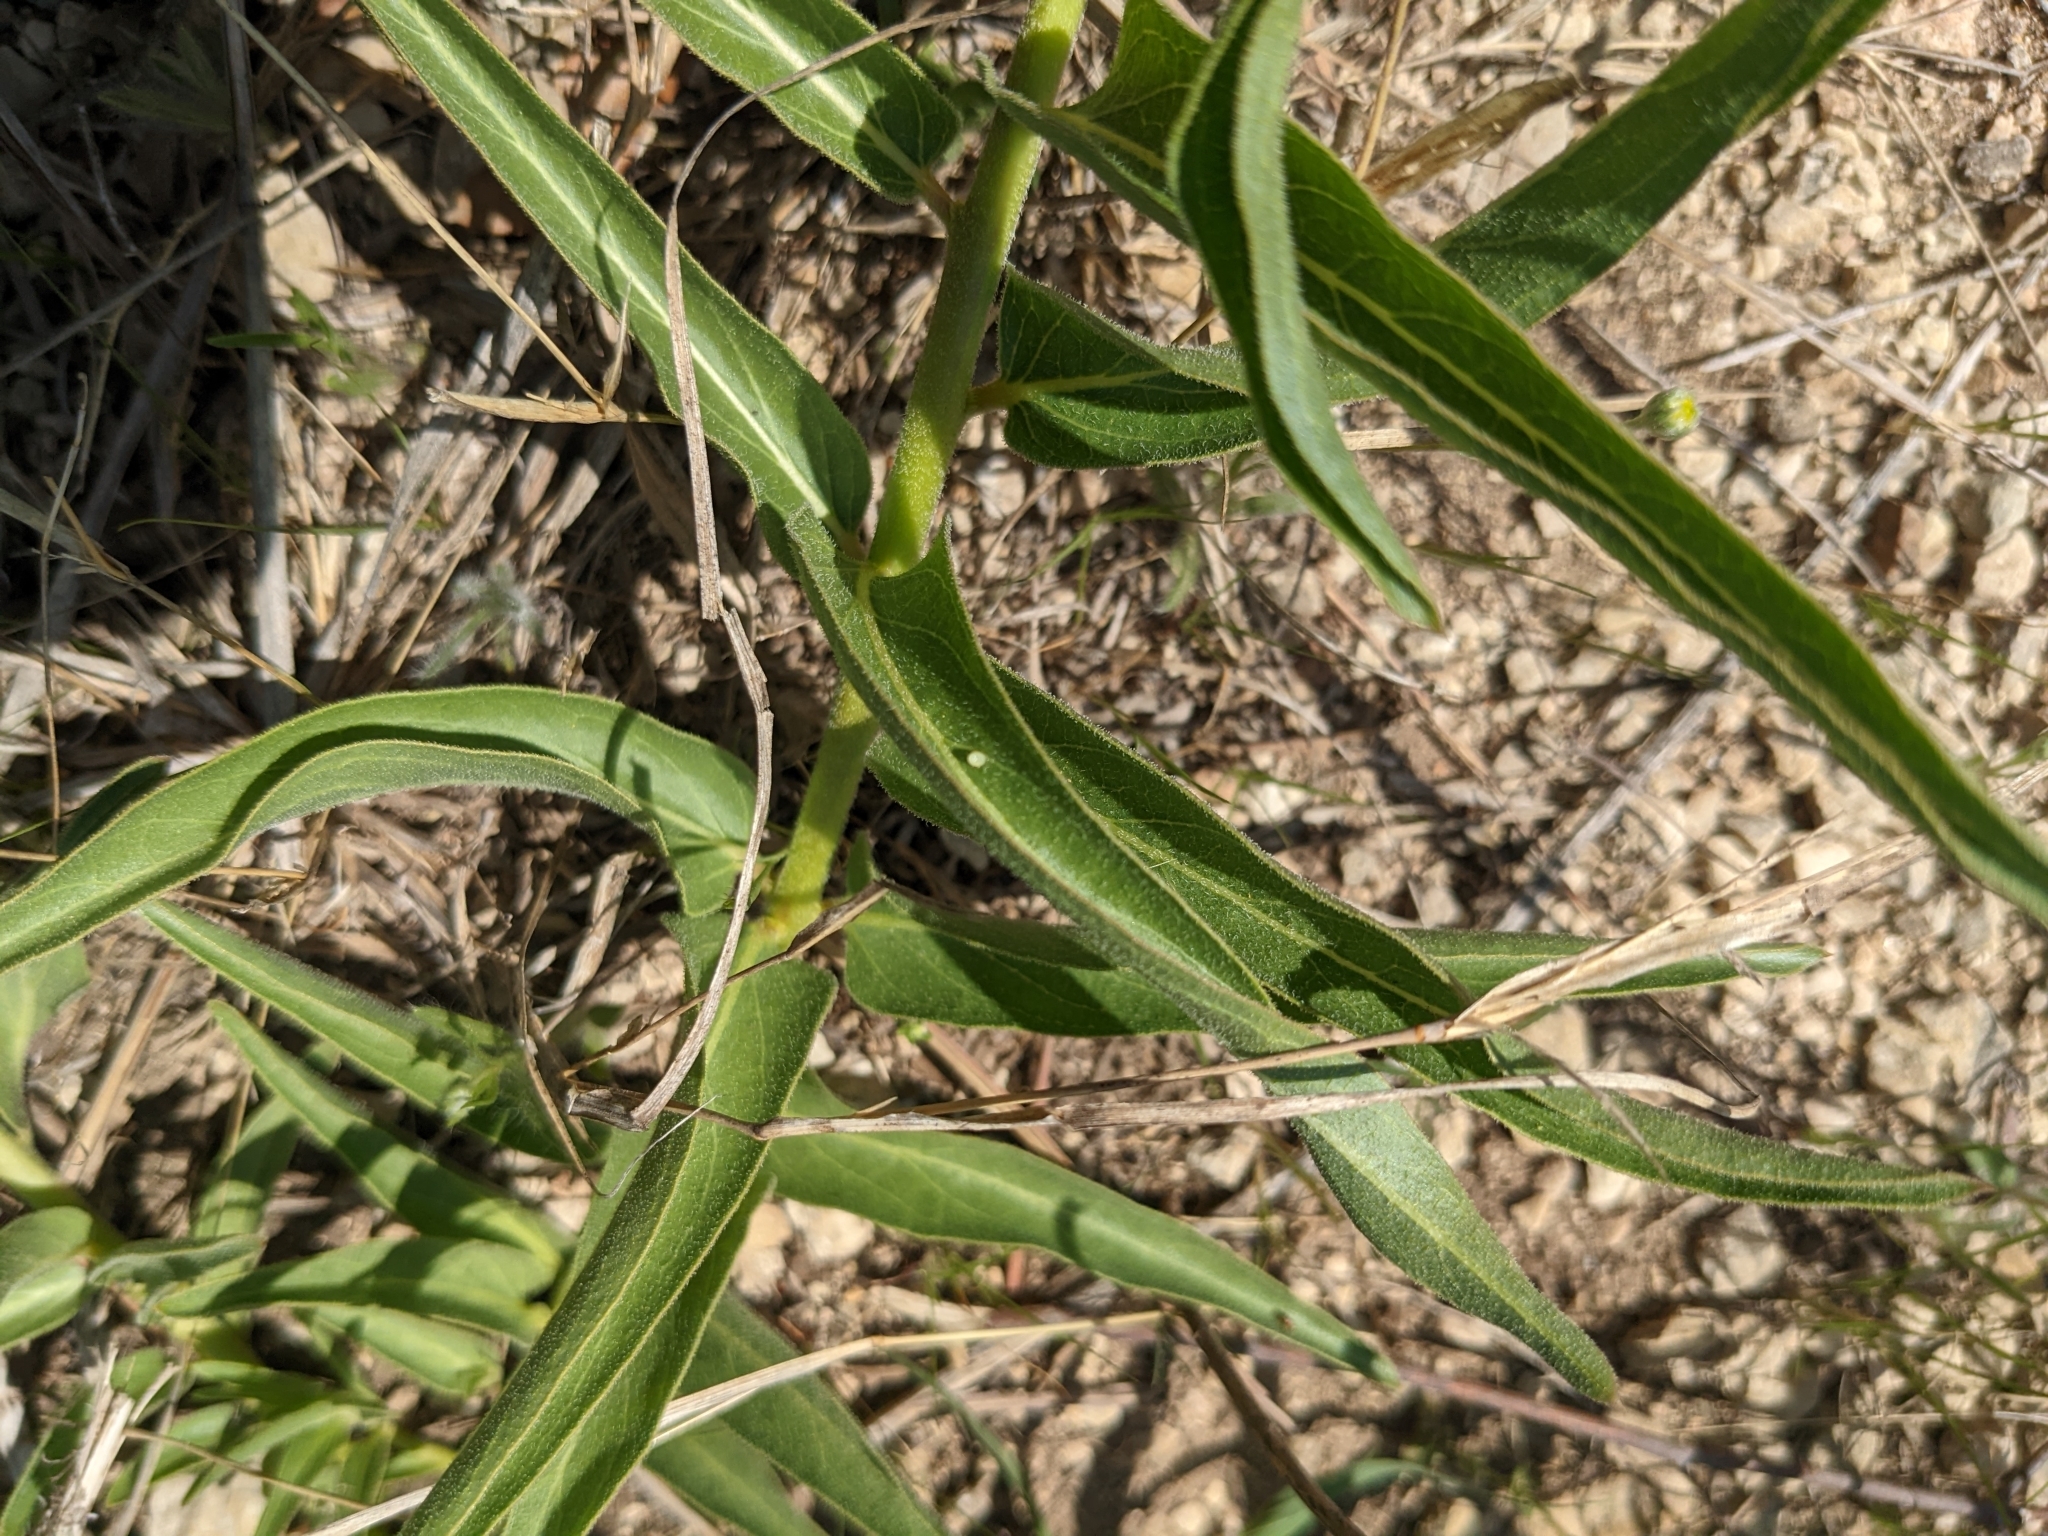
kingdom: Animalia
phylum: Arthropoda
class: Insecta
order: Lepidoptera
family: Nymphalidae
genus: Danaus
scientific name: Danaus plexippus
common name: Monarch
